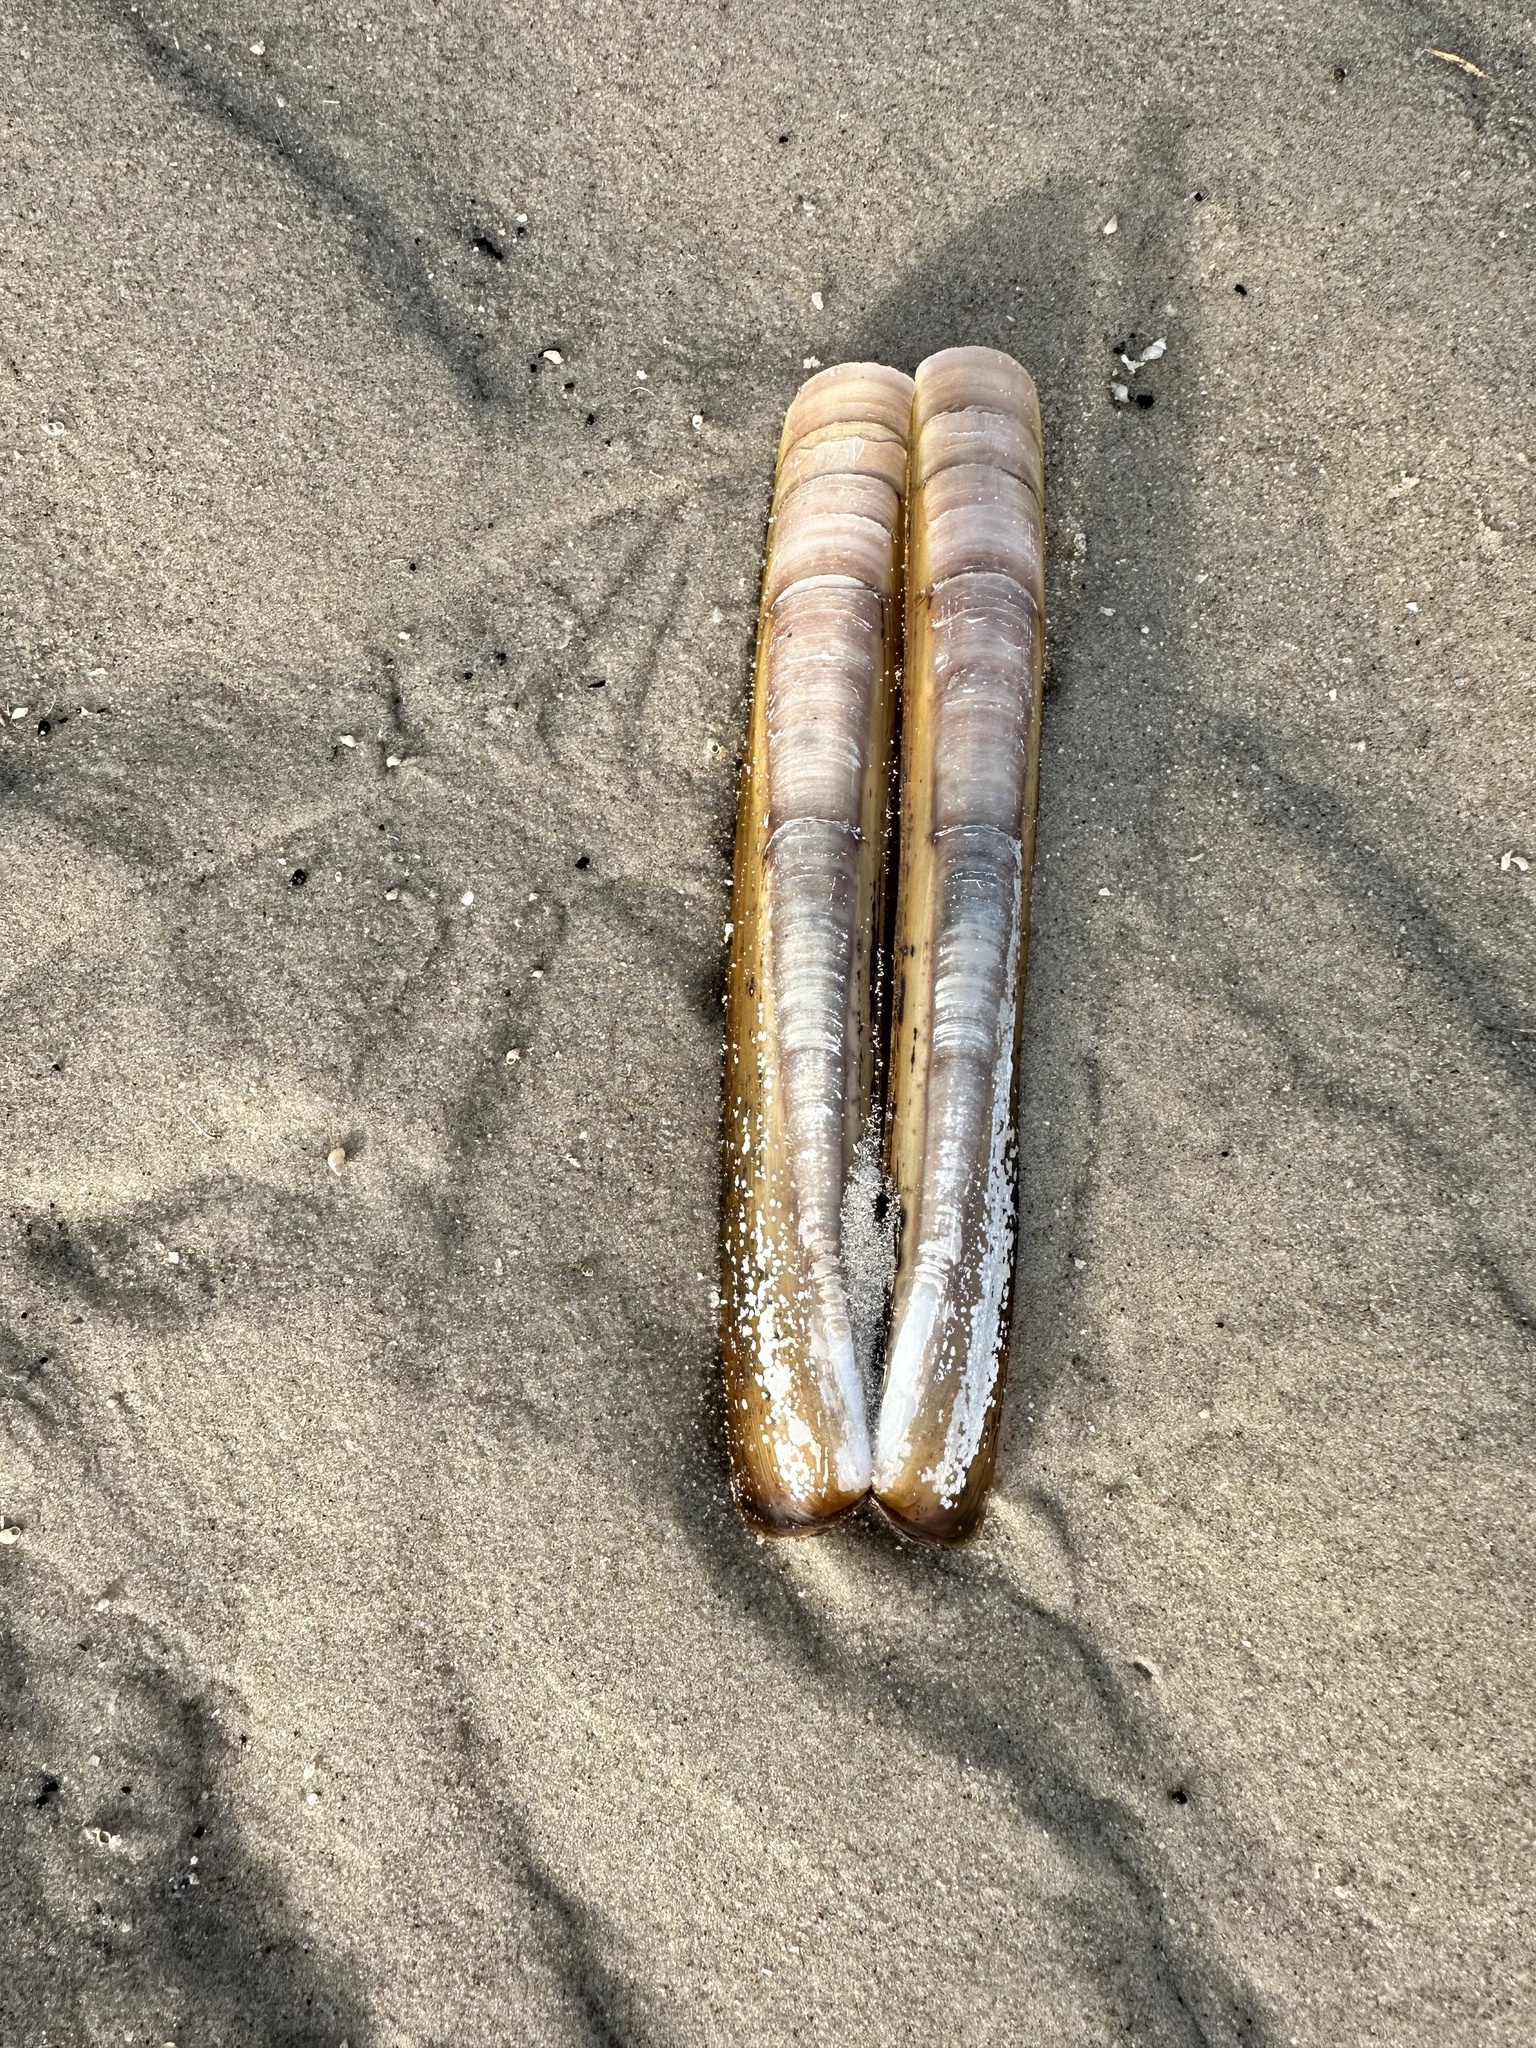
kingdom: Animalia
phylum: Mollusca
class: Bivalvia
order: Adapedonta
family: Pharidae
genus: Ensis
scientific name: Ensis leei
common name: American jack knife clam
